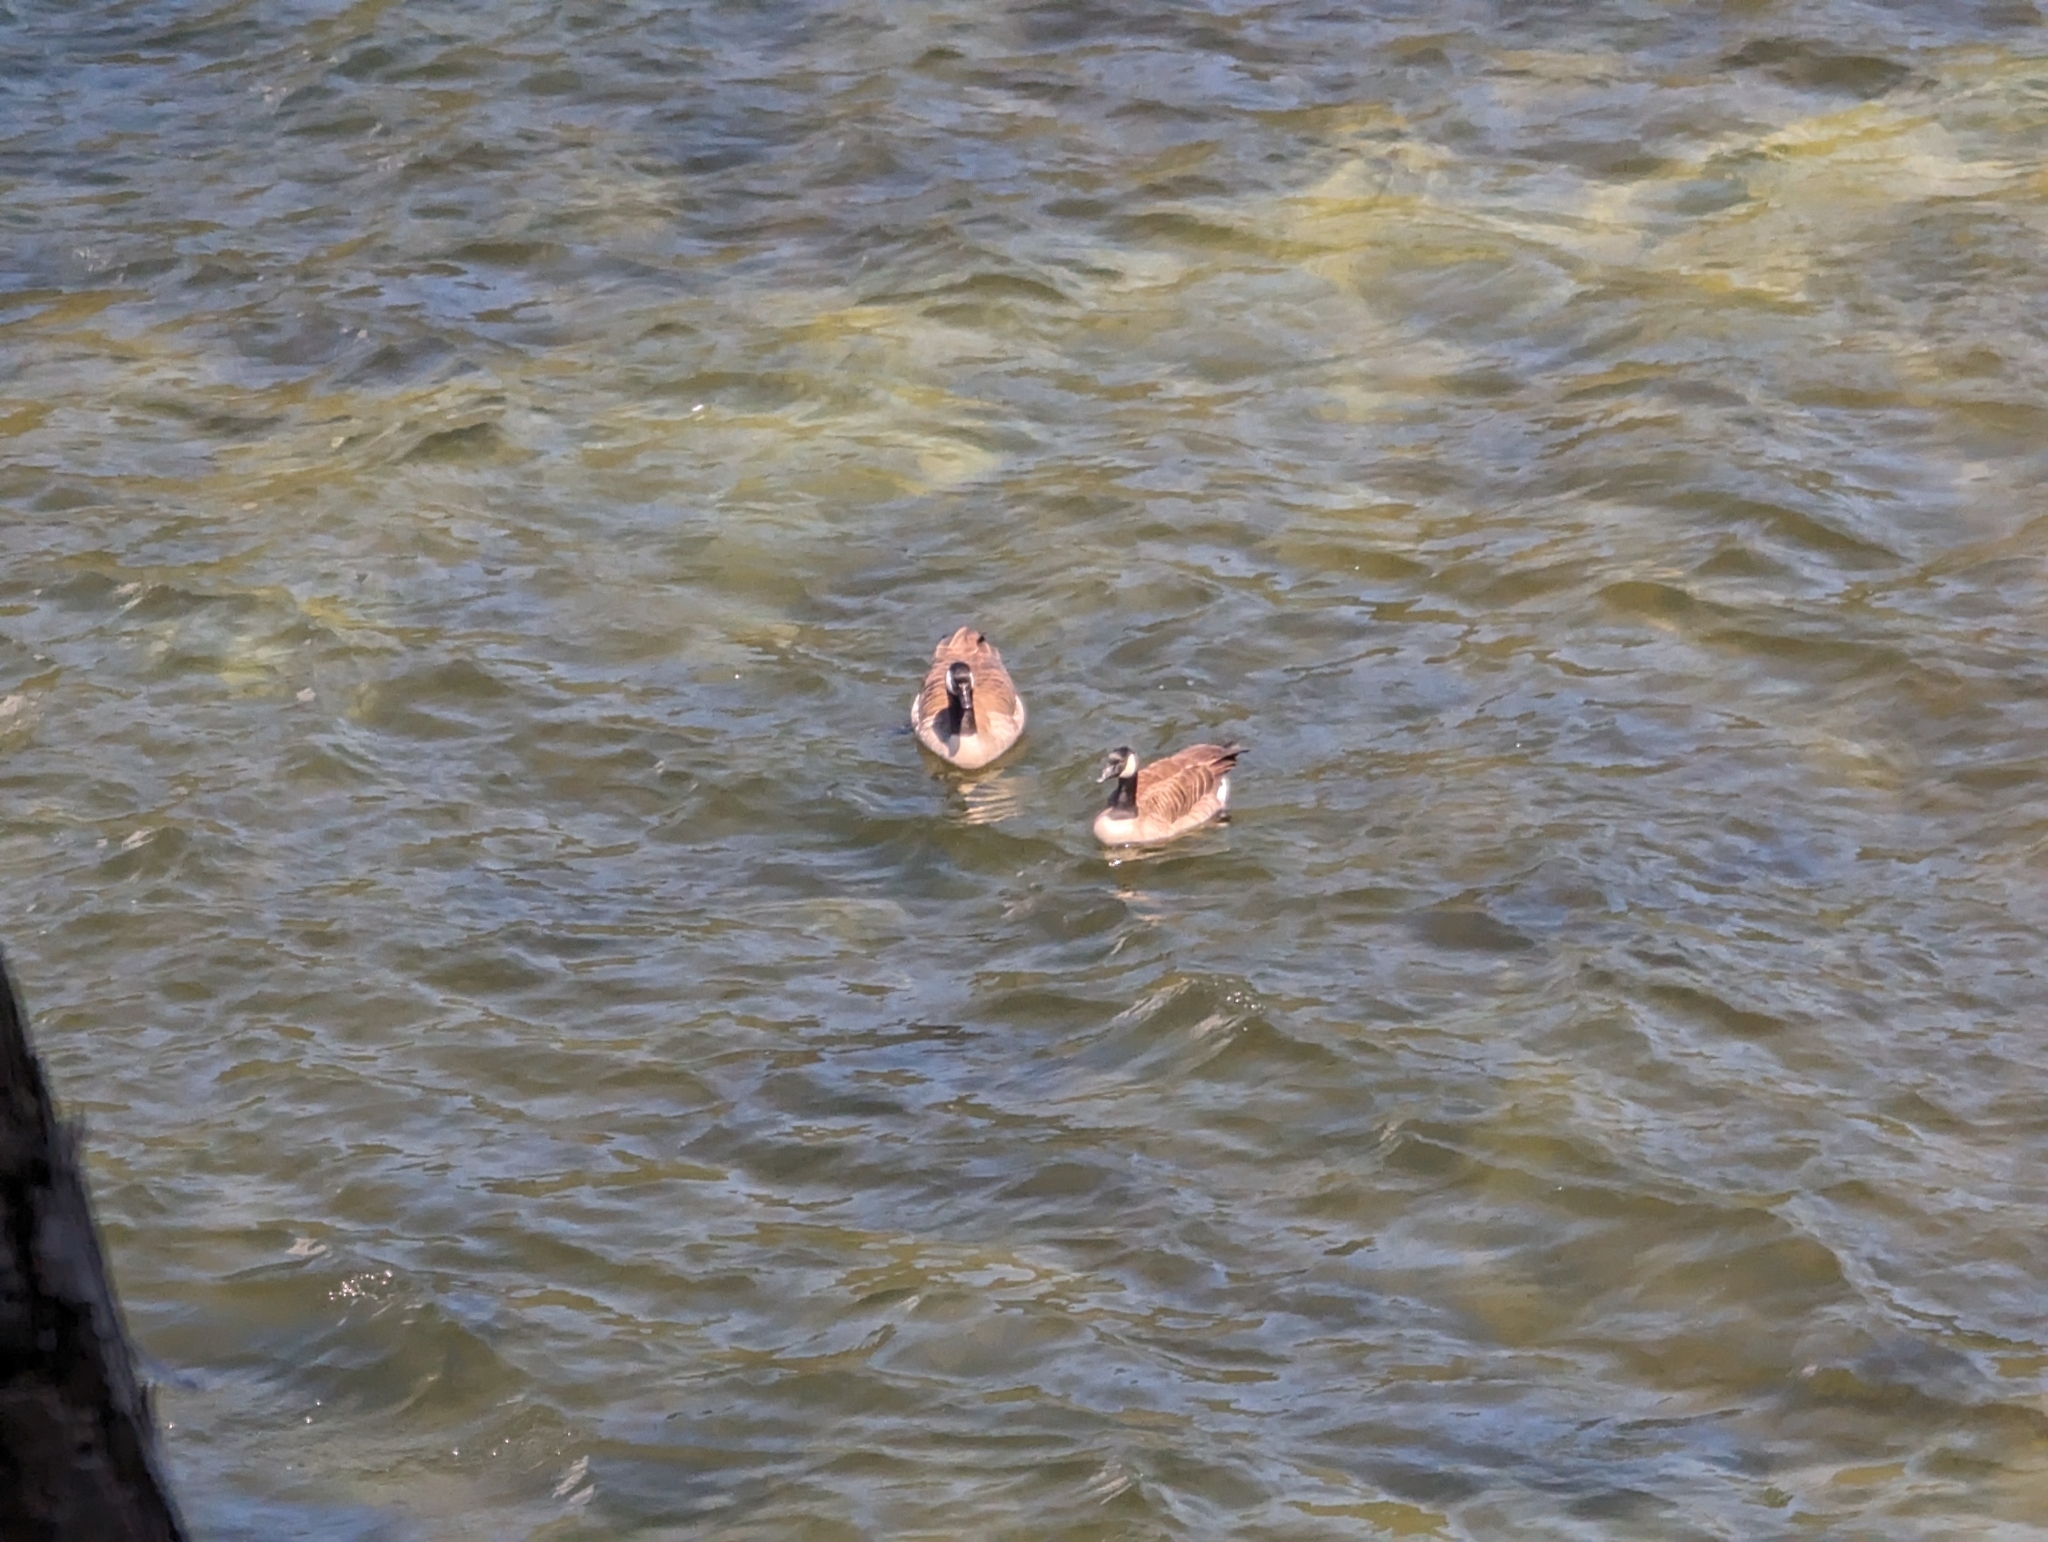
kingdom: Animalia
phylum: Chordata
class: Aves
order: Anseriformes
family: Anatidae
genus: Branta
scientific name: Branta canadensis
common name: Canada goose
